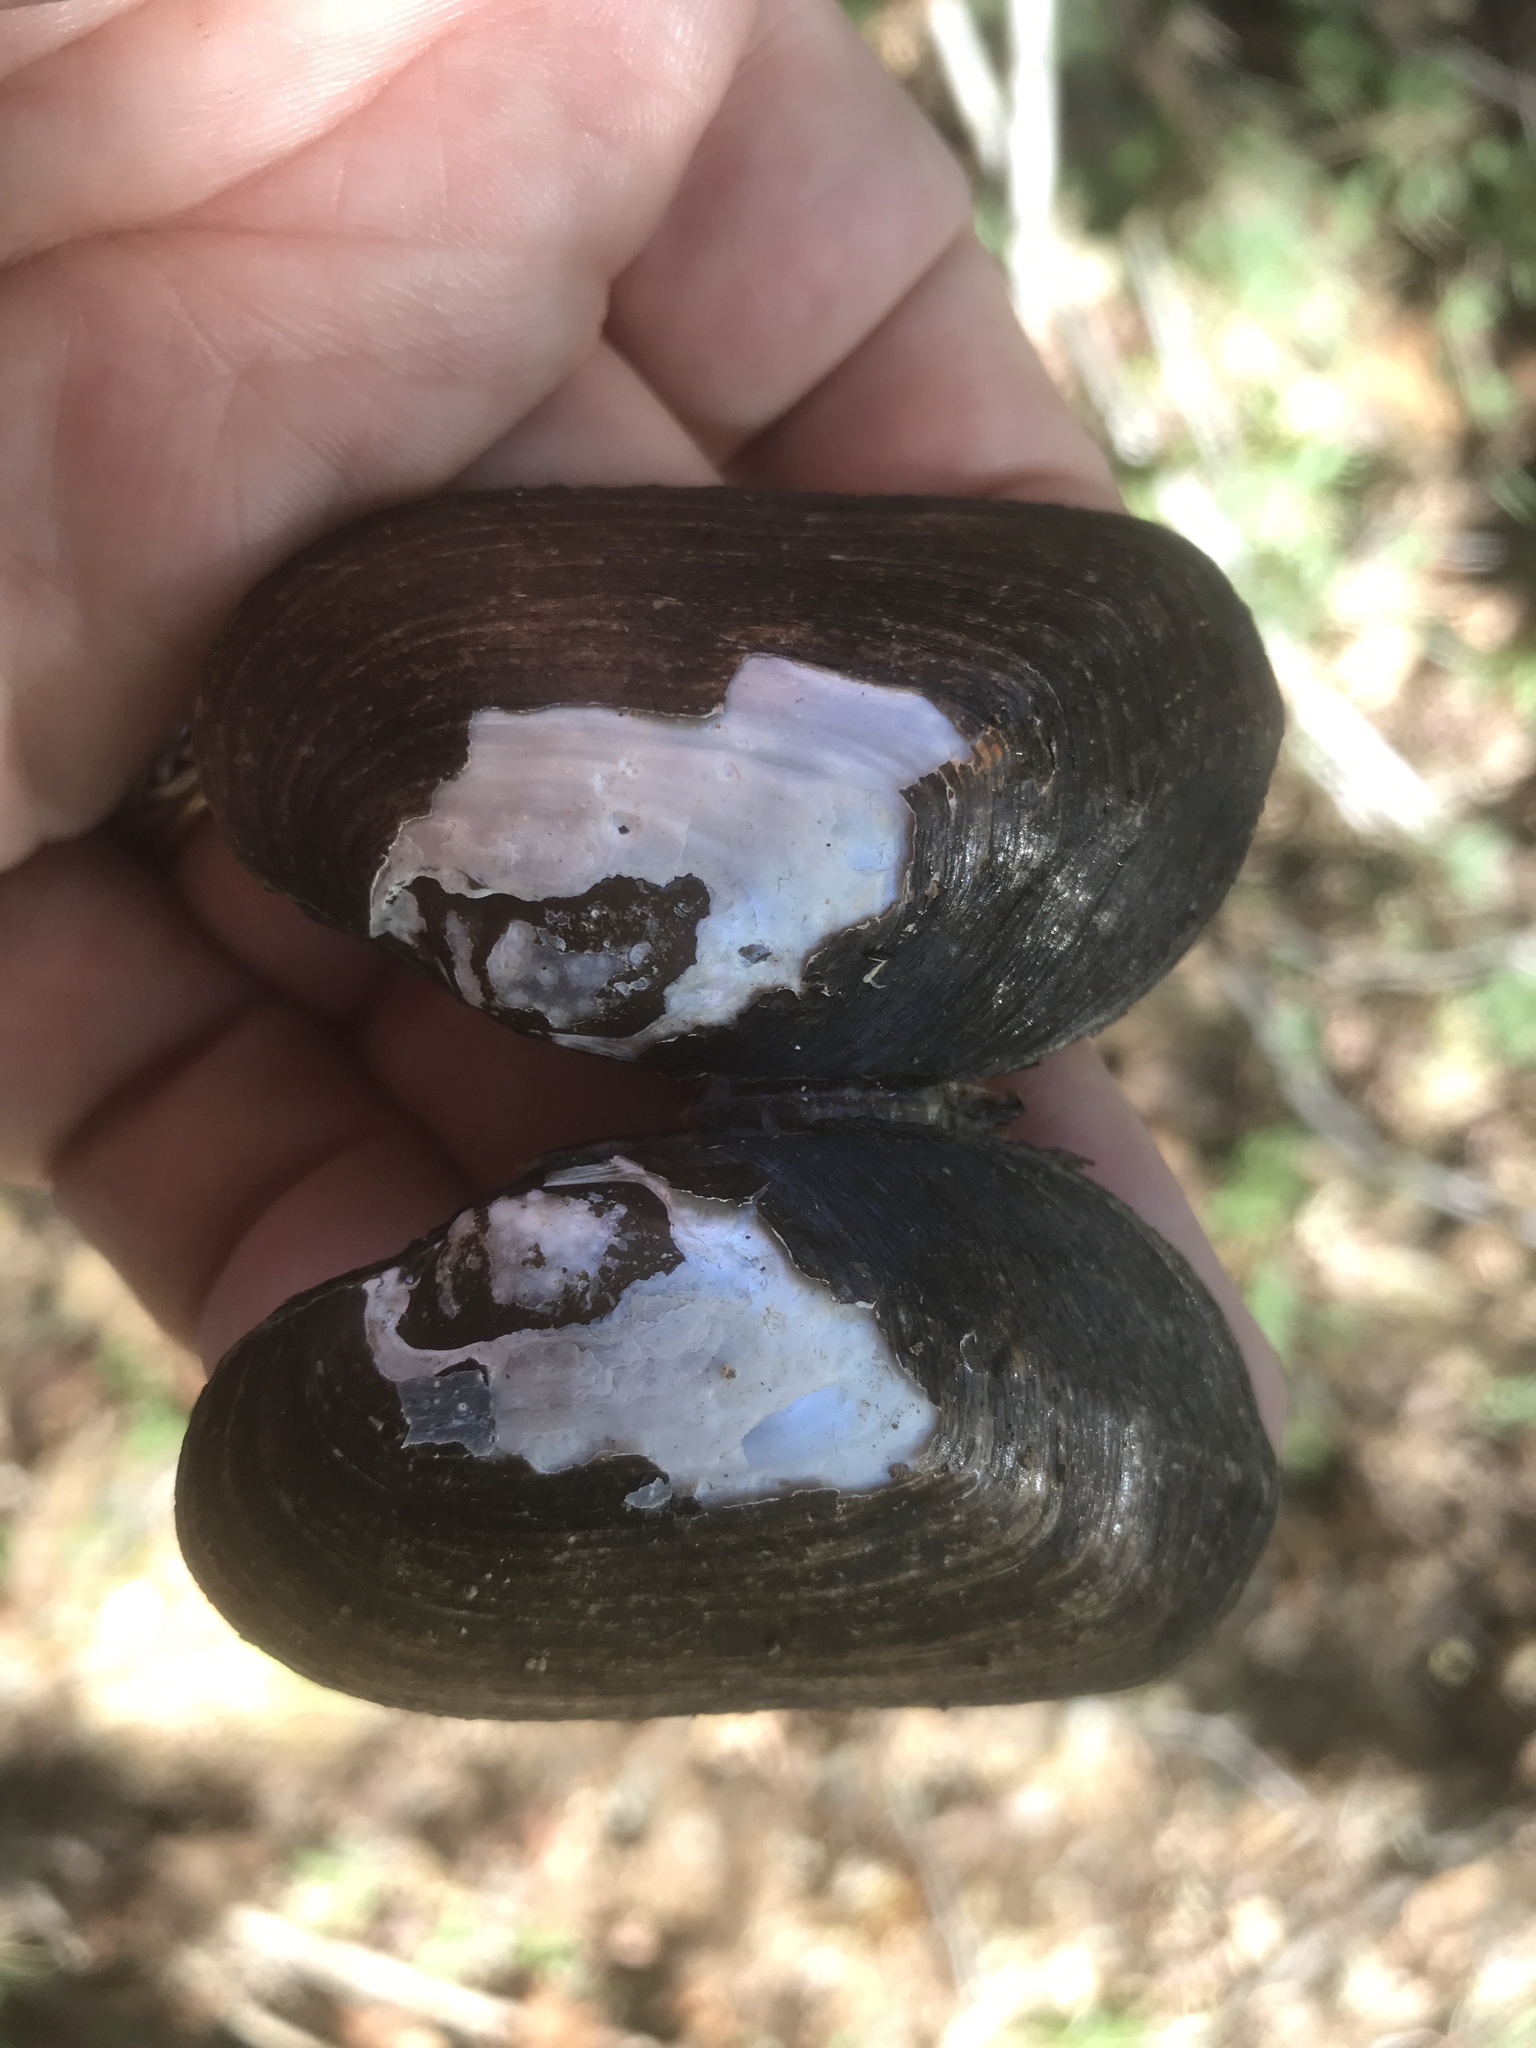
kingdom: Animalia
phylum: Mollusca
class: Bivalvia
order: Unionida
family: Unionidae
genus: Elliptio
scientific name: Elliptio complanata
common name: Eastern elliptio
